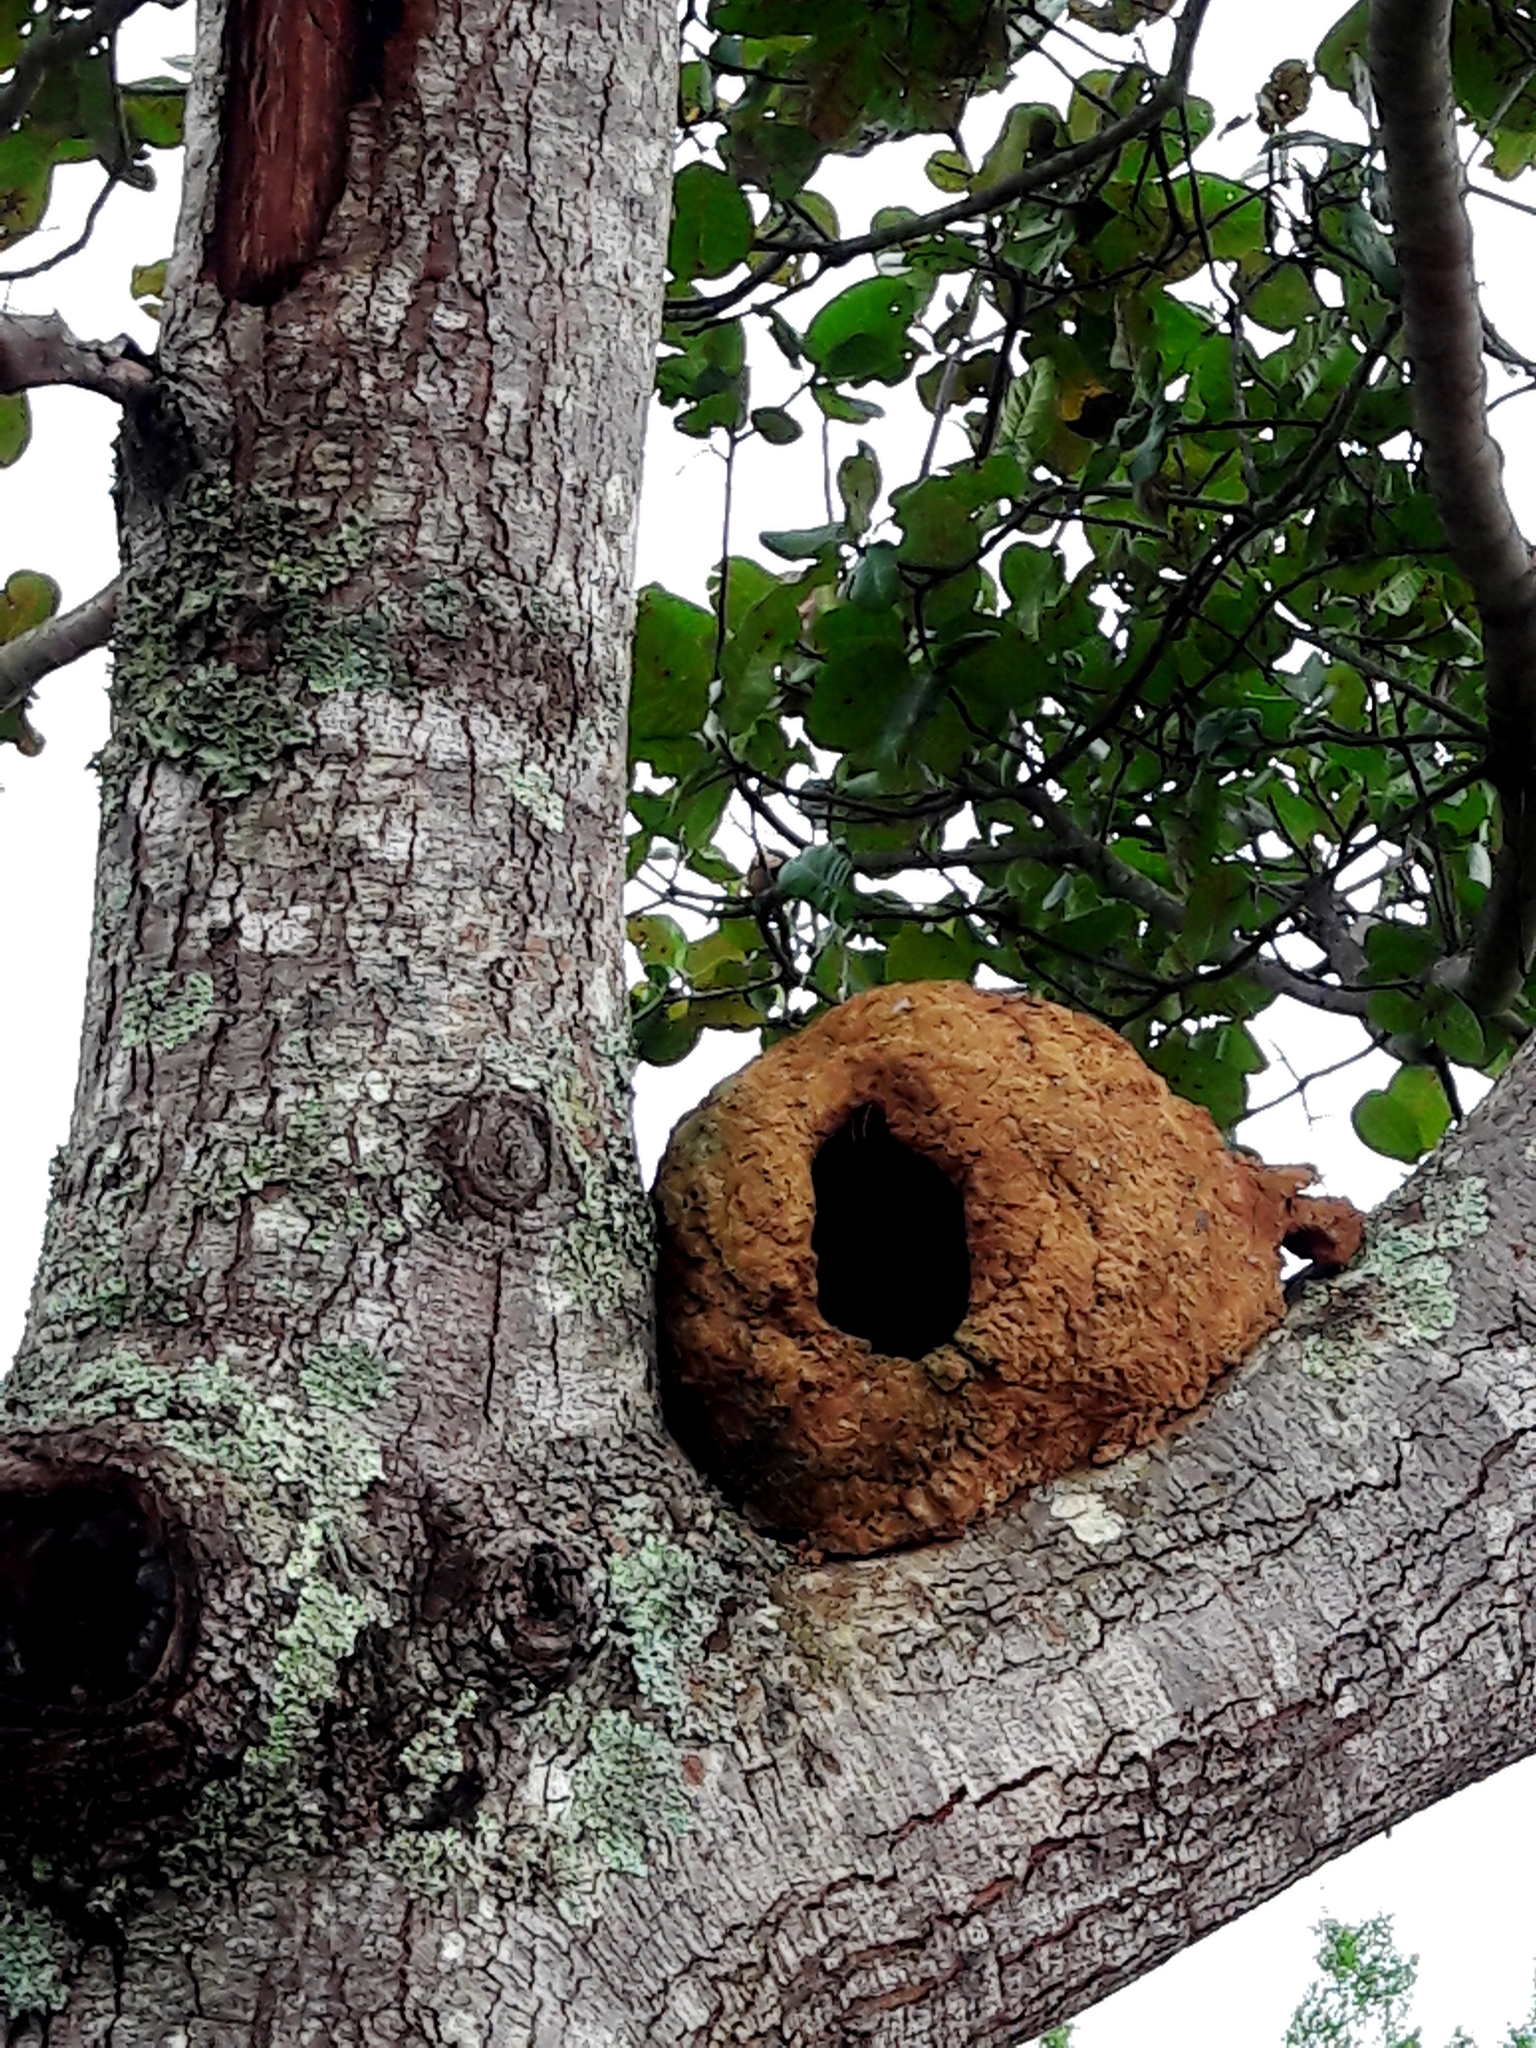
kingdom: Animalia
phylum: Chordata
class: Aves
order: Passeriformes
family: Furnariidae
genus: Furnarius
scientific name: Furnarius rufus
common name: Rufous hornero
